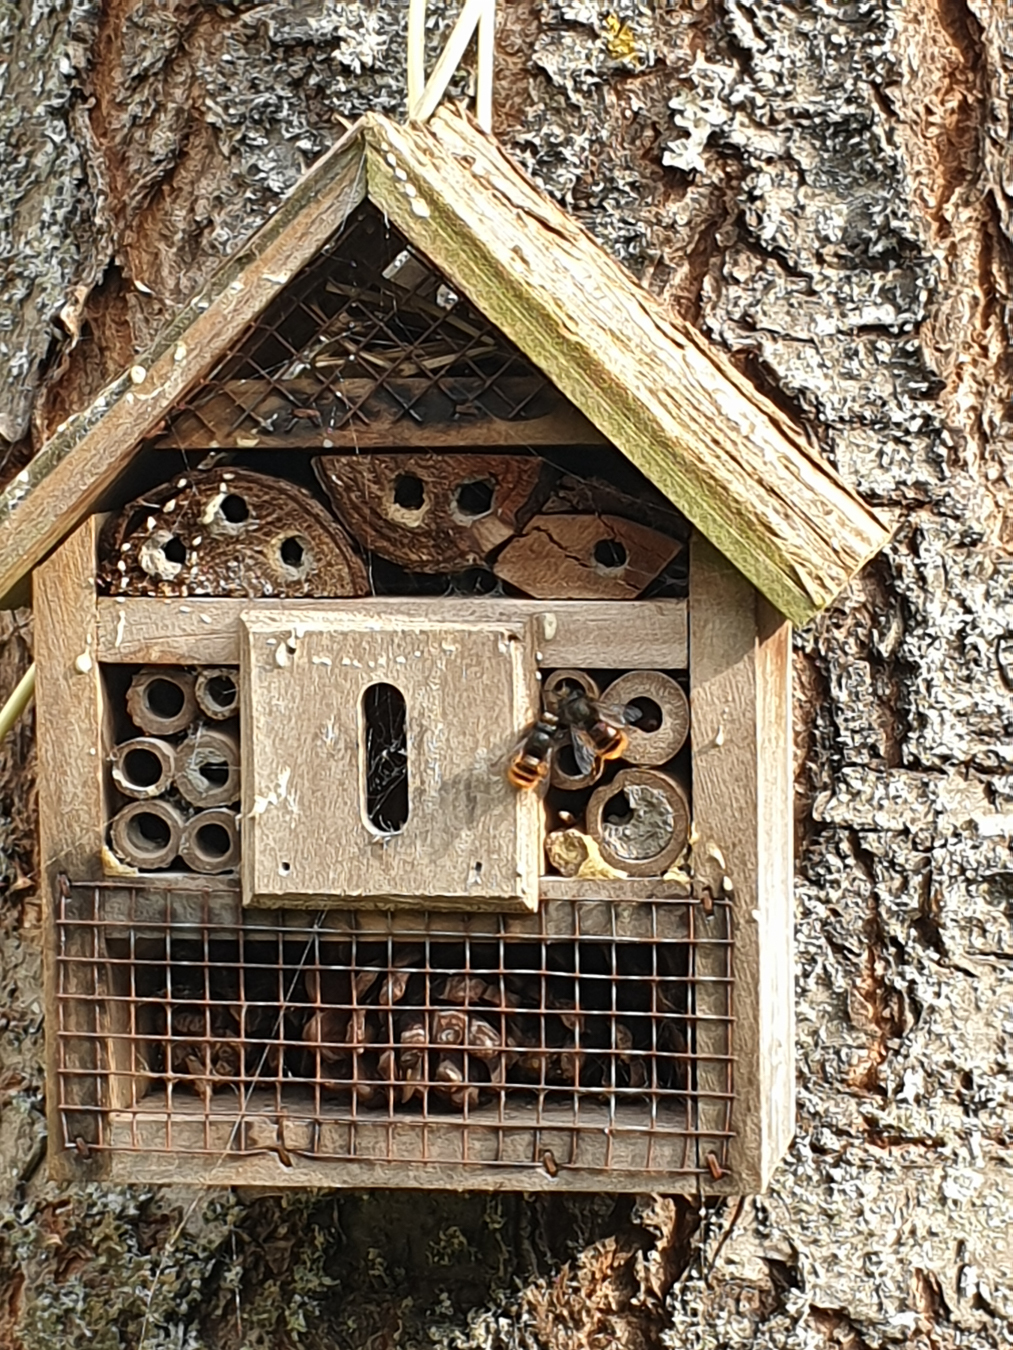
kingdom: Animalia
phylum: Arthropoda
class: Insecta
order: Hymenoptera
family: Megachilidae
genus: Osmia
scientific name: Osmia cornuta
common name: Mason bee
